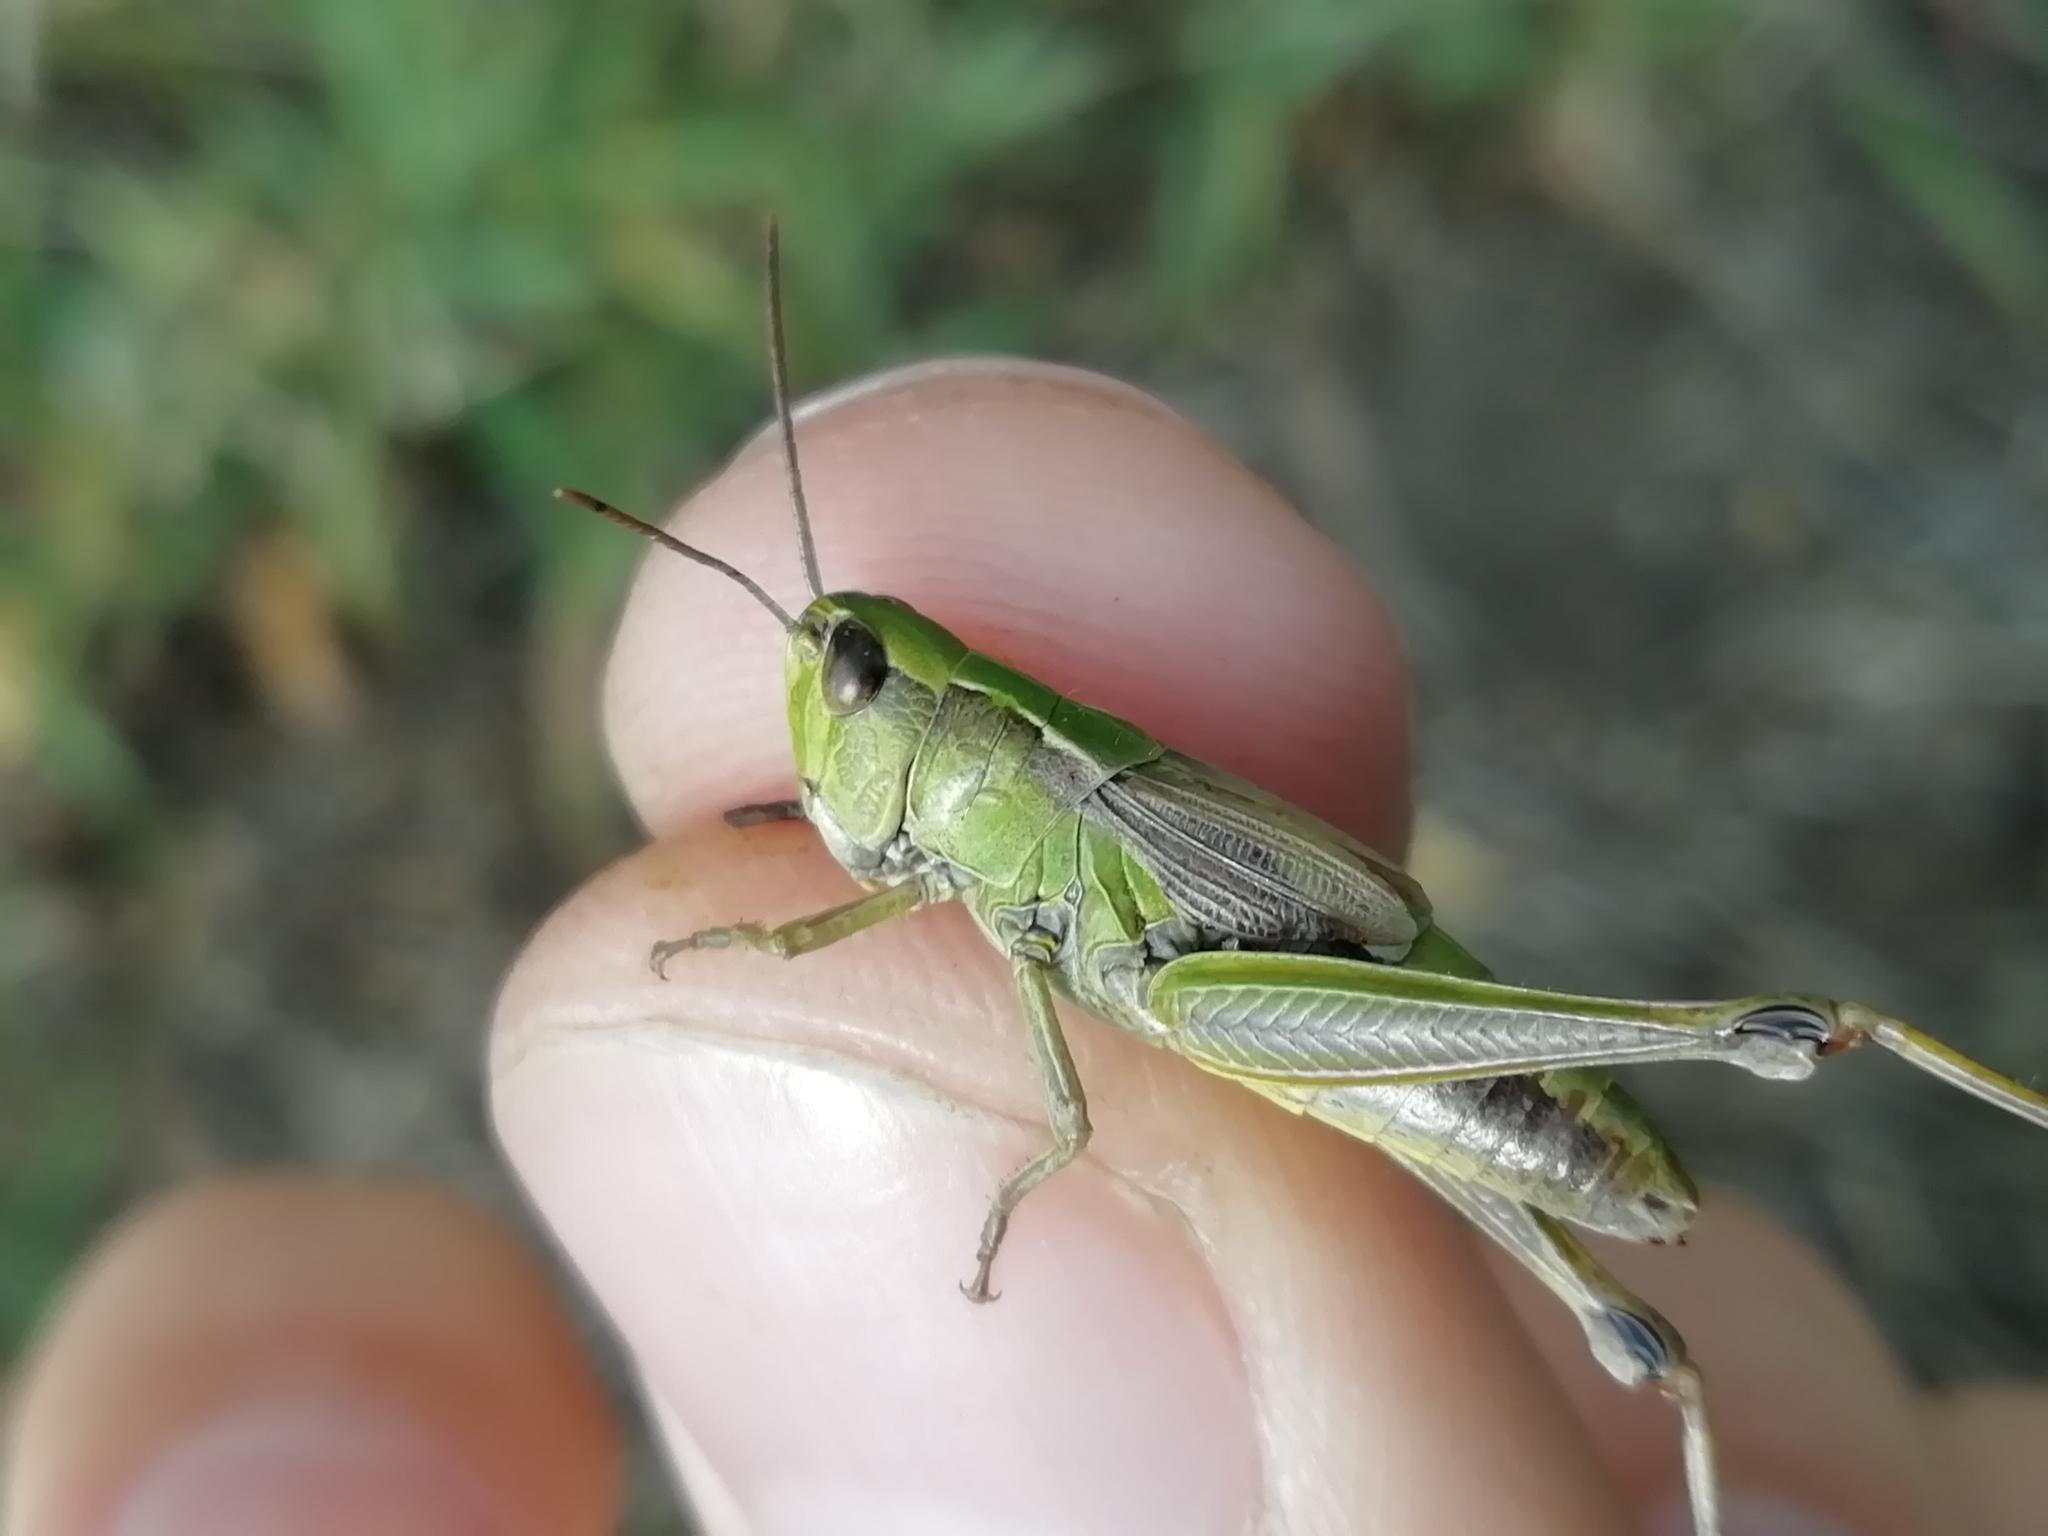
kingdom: Animalia
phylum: Arthropoda
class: Insecta
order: Orthoptera
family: Acrididae
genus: Chorthippus
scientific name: Chorthippus fallax
